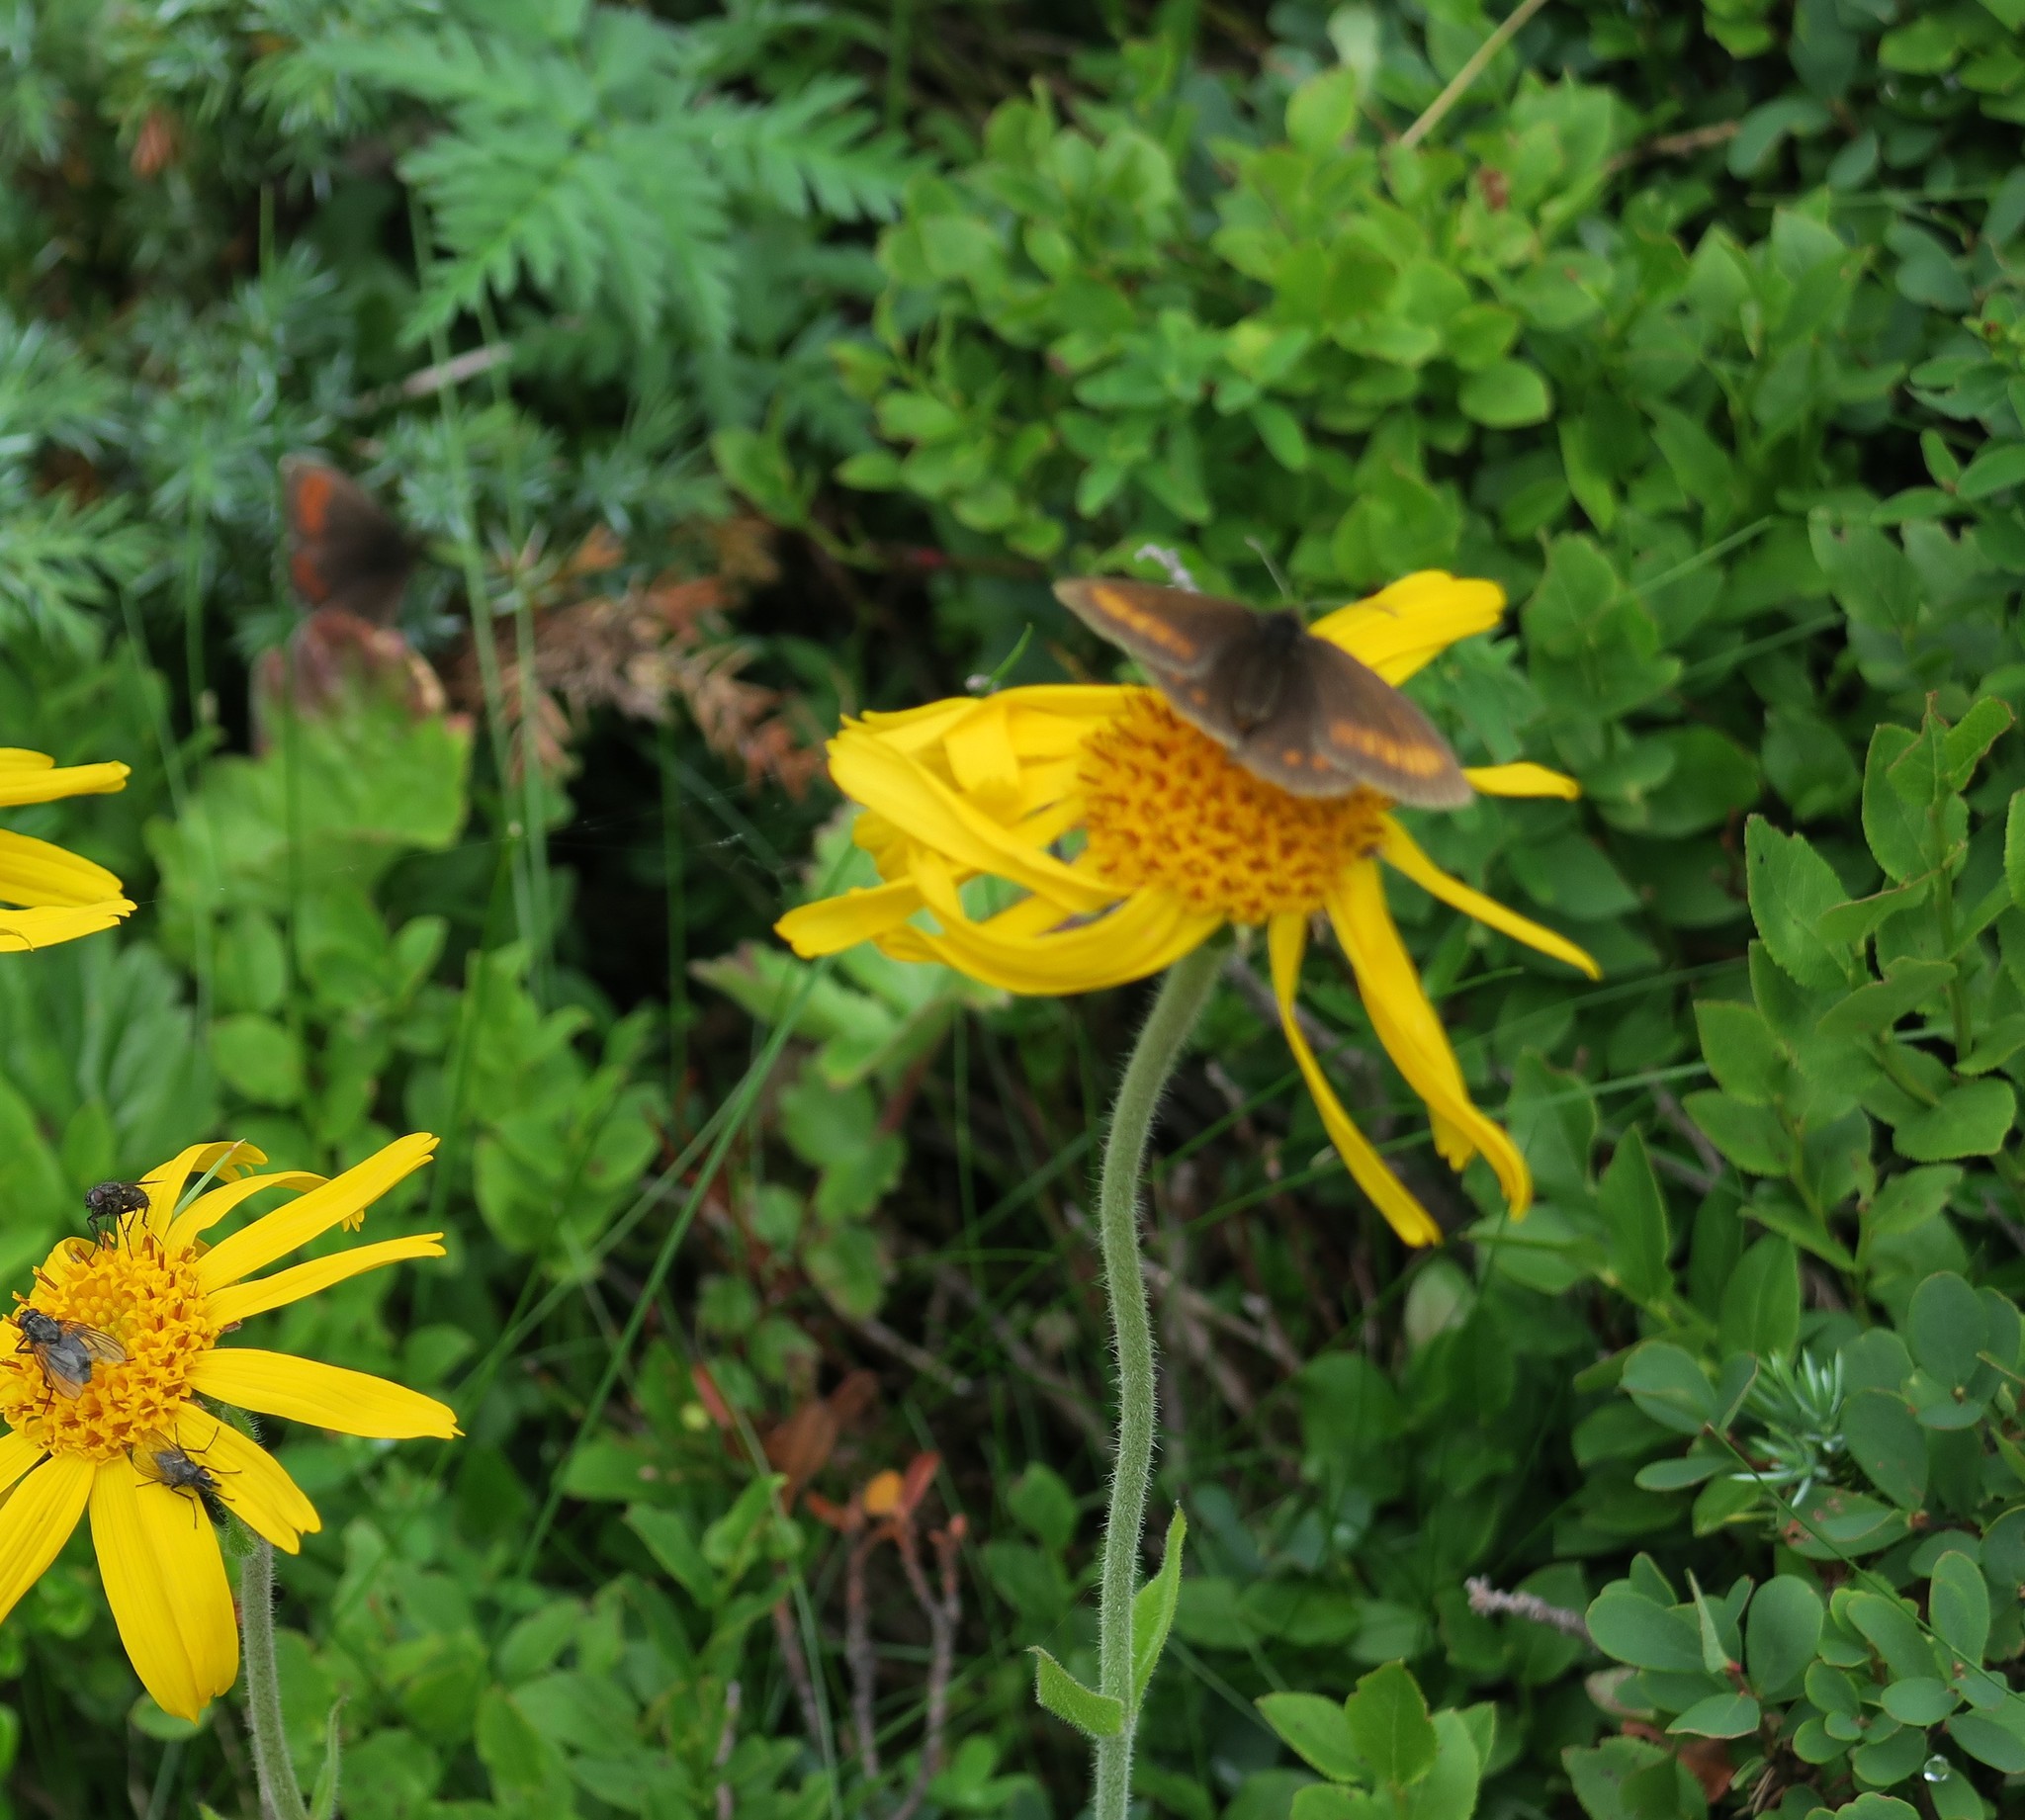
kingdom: Animalia
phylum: Arthropoda
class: Insecta
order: Lepidoptera
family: Nymphalidae
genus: Erebia
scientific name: Erebia pharte
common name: Blind ringlet
